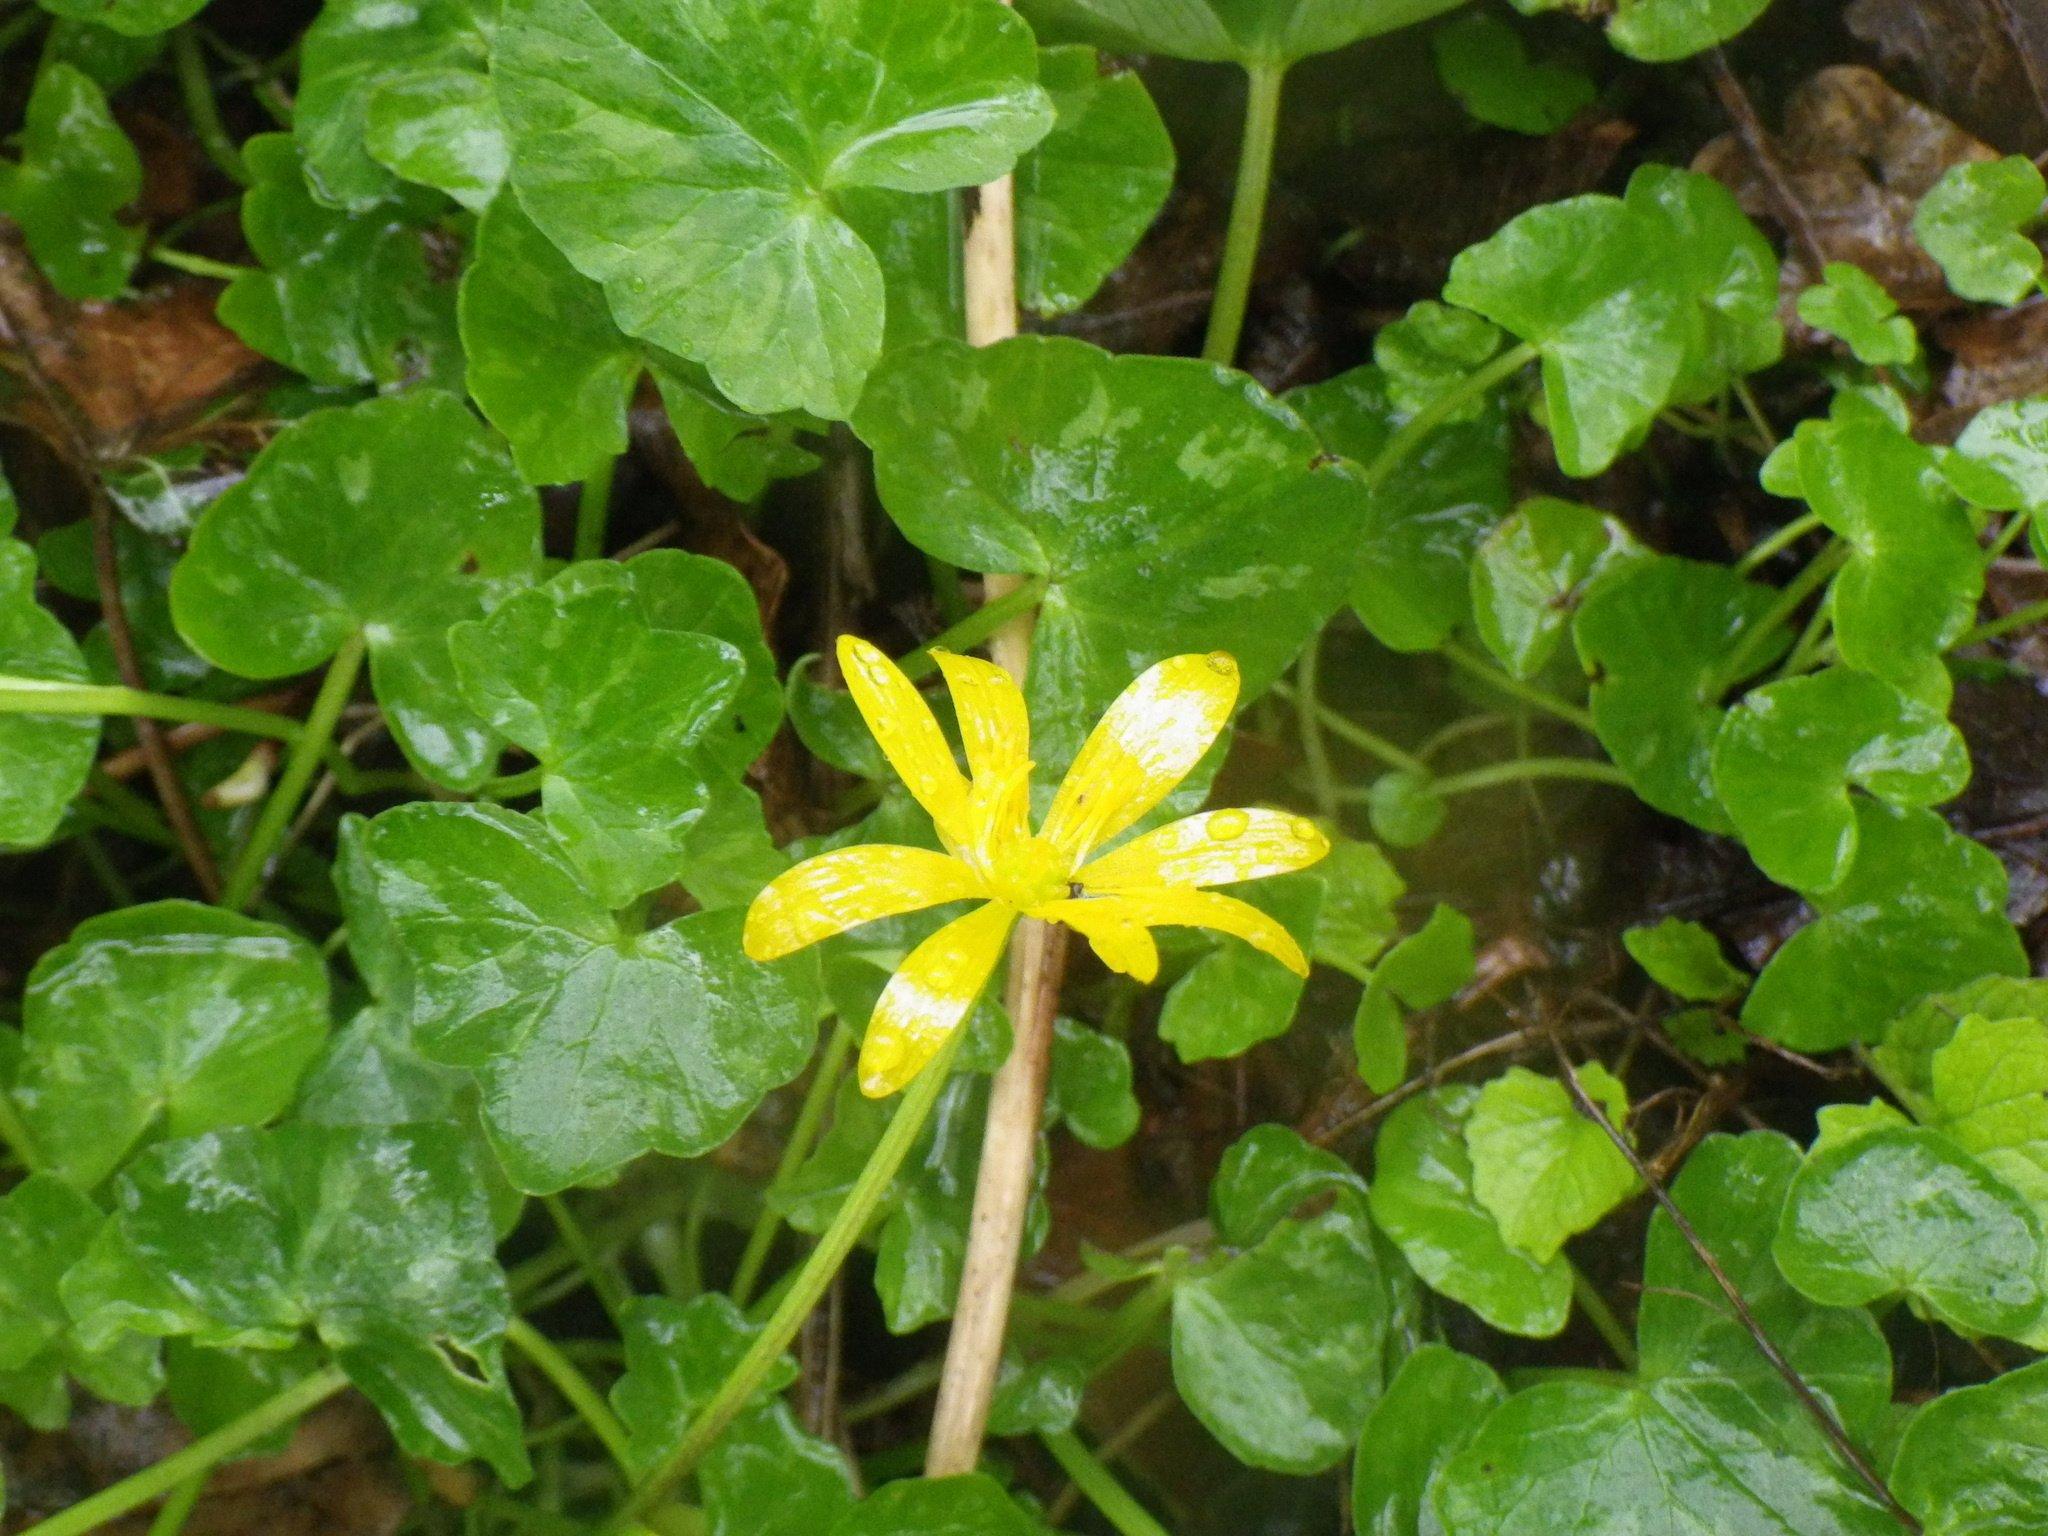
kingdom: Plantae
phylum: Tracheophyta
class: Magnoliopsida
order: Ranunculales
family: Ranunculaceae
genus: Ficaria
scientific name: Ficaria verna
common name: Lesser celandine
